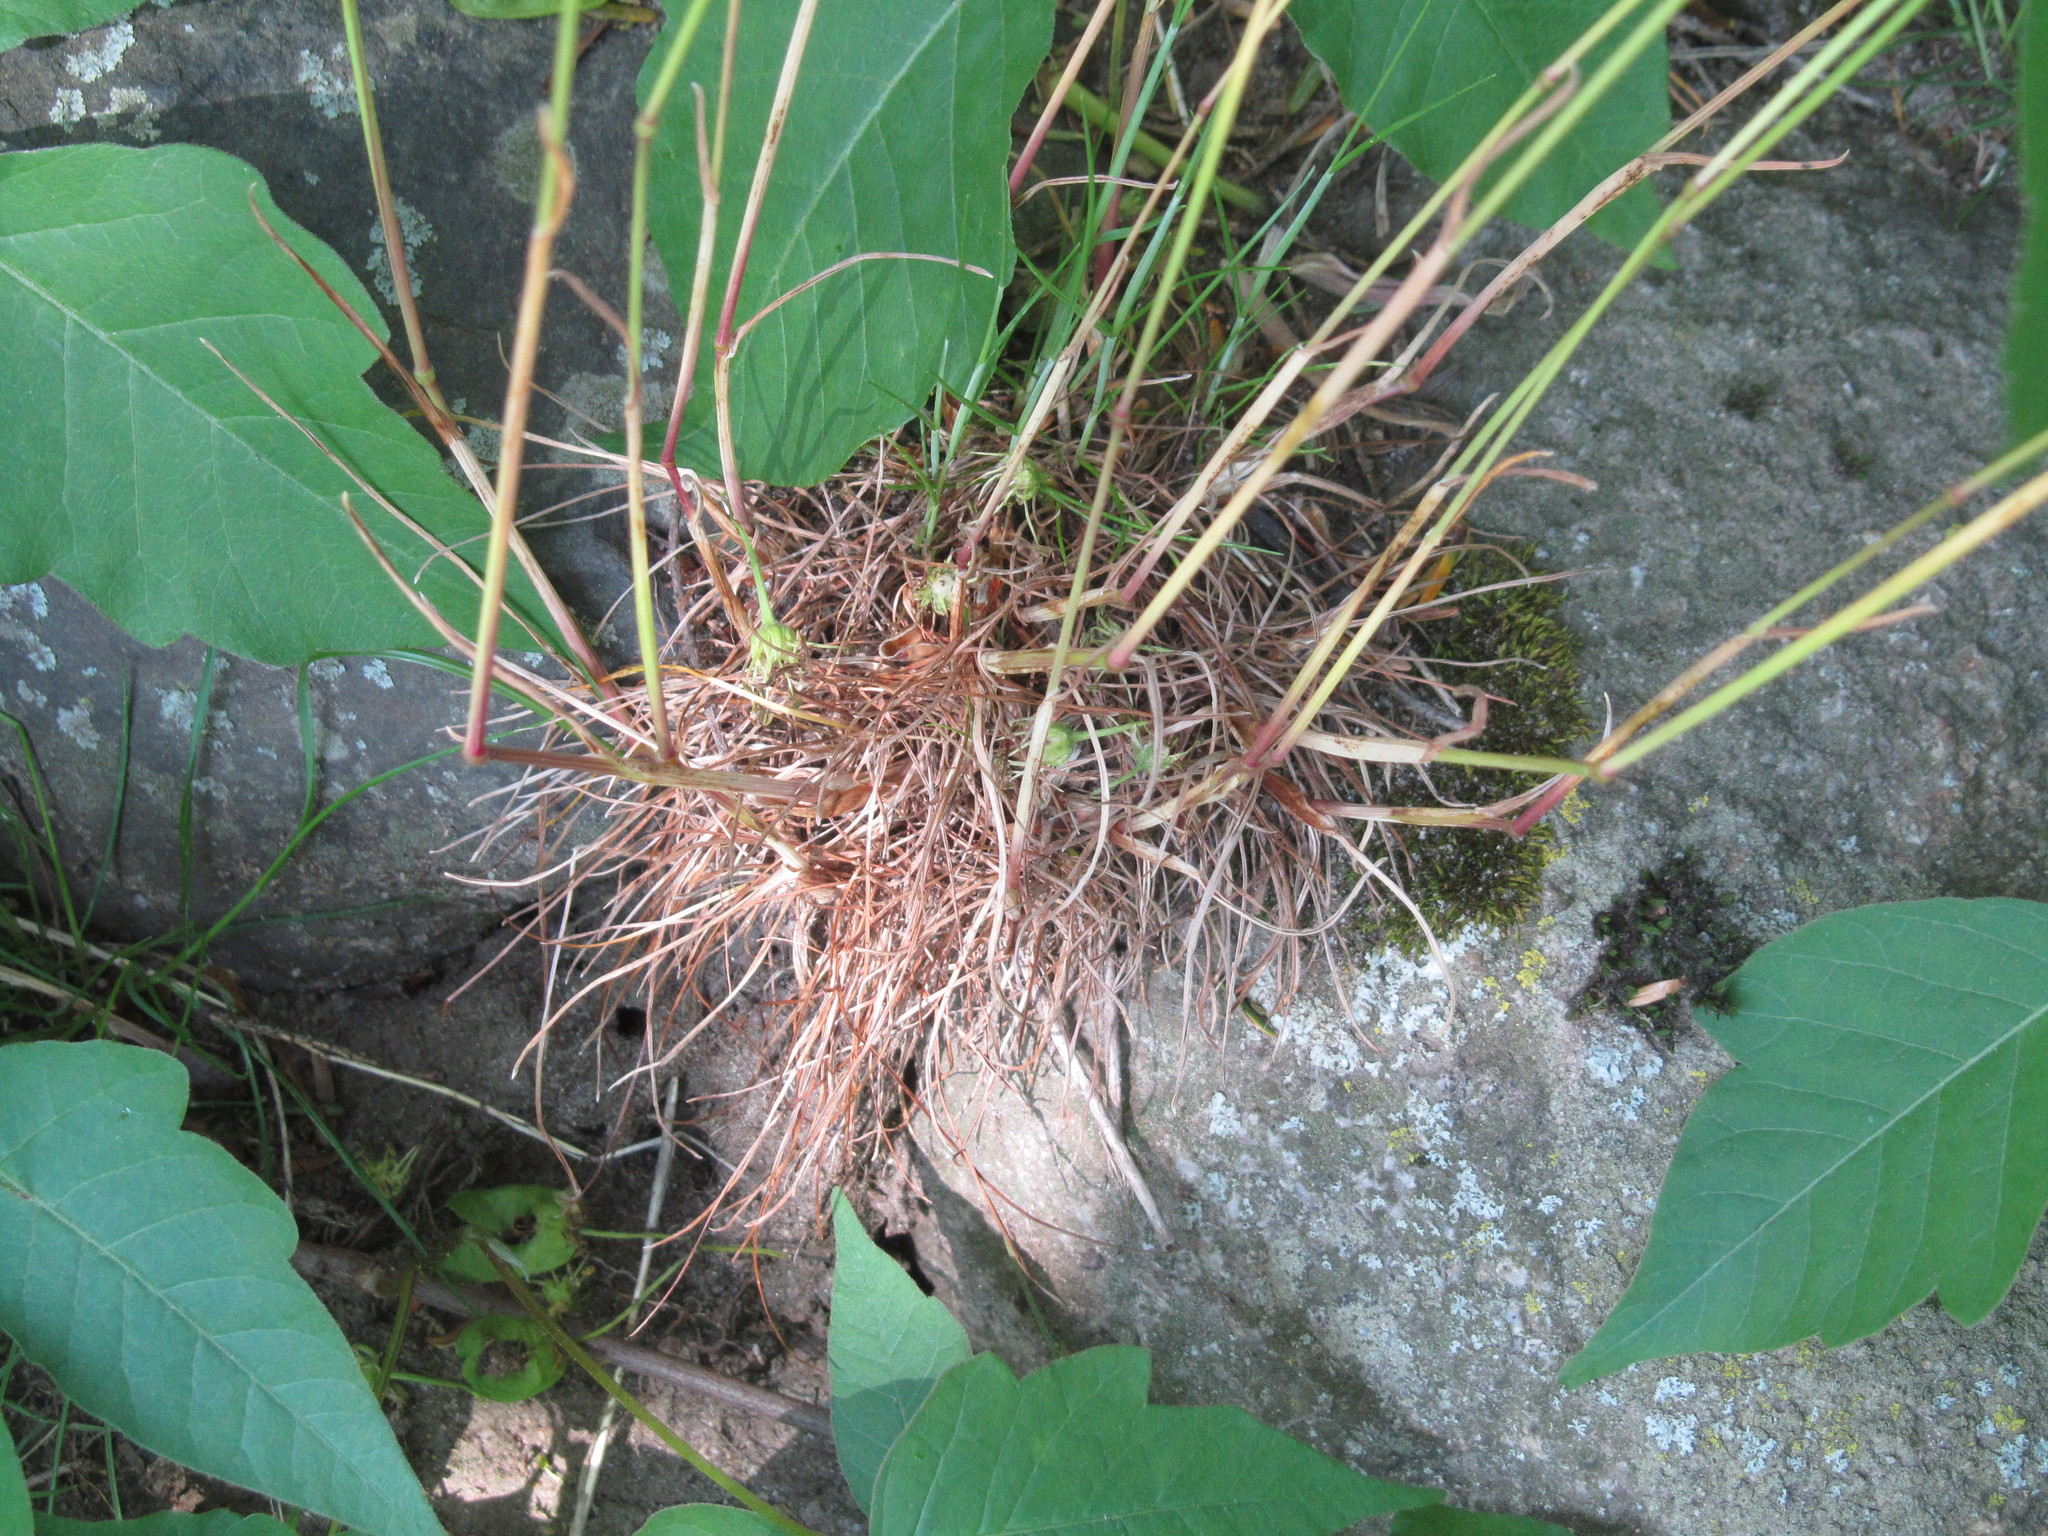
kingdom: Plantae
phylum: Tracheophyta
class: Liliopsida
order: Poales
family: Poaceae
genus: Poa
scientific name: Poa bulbosa
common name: Bulbous bluegrass
